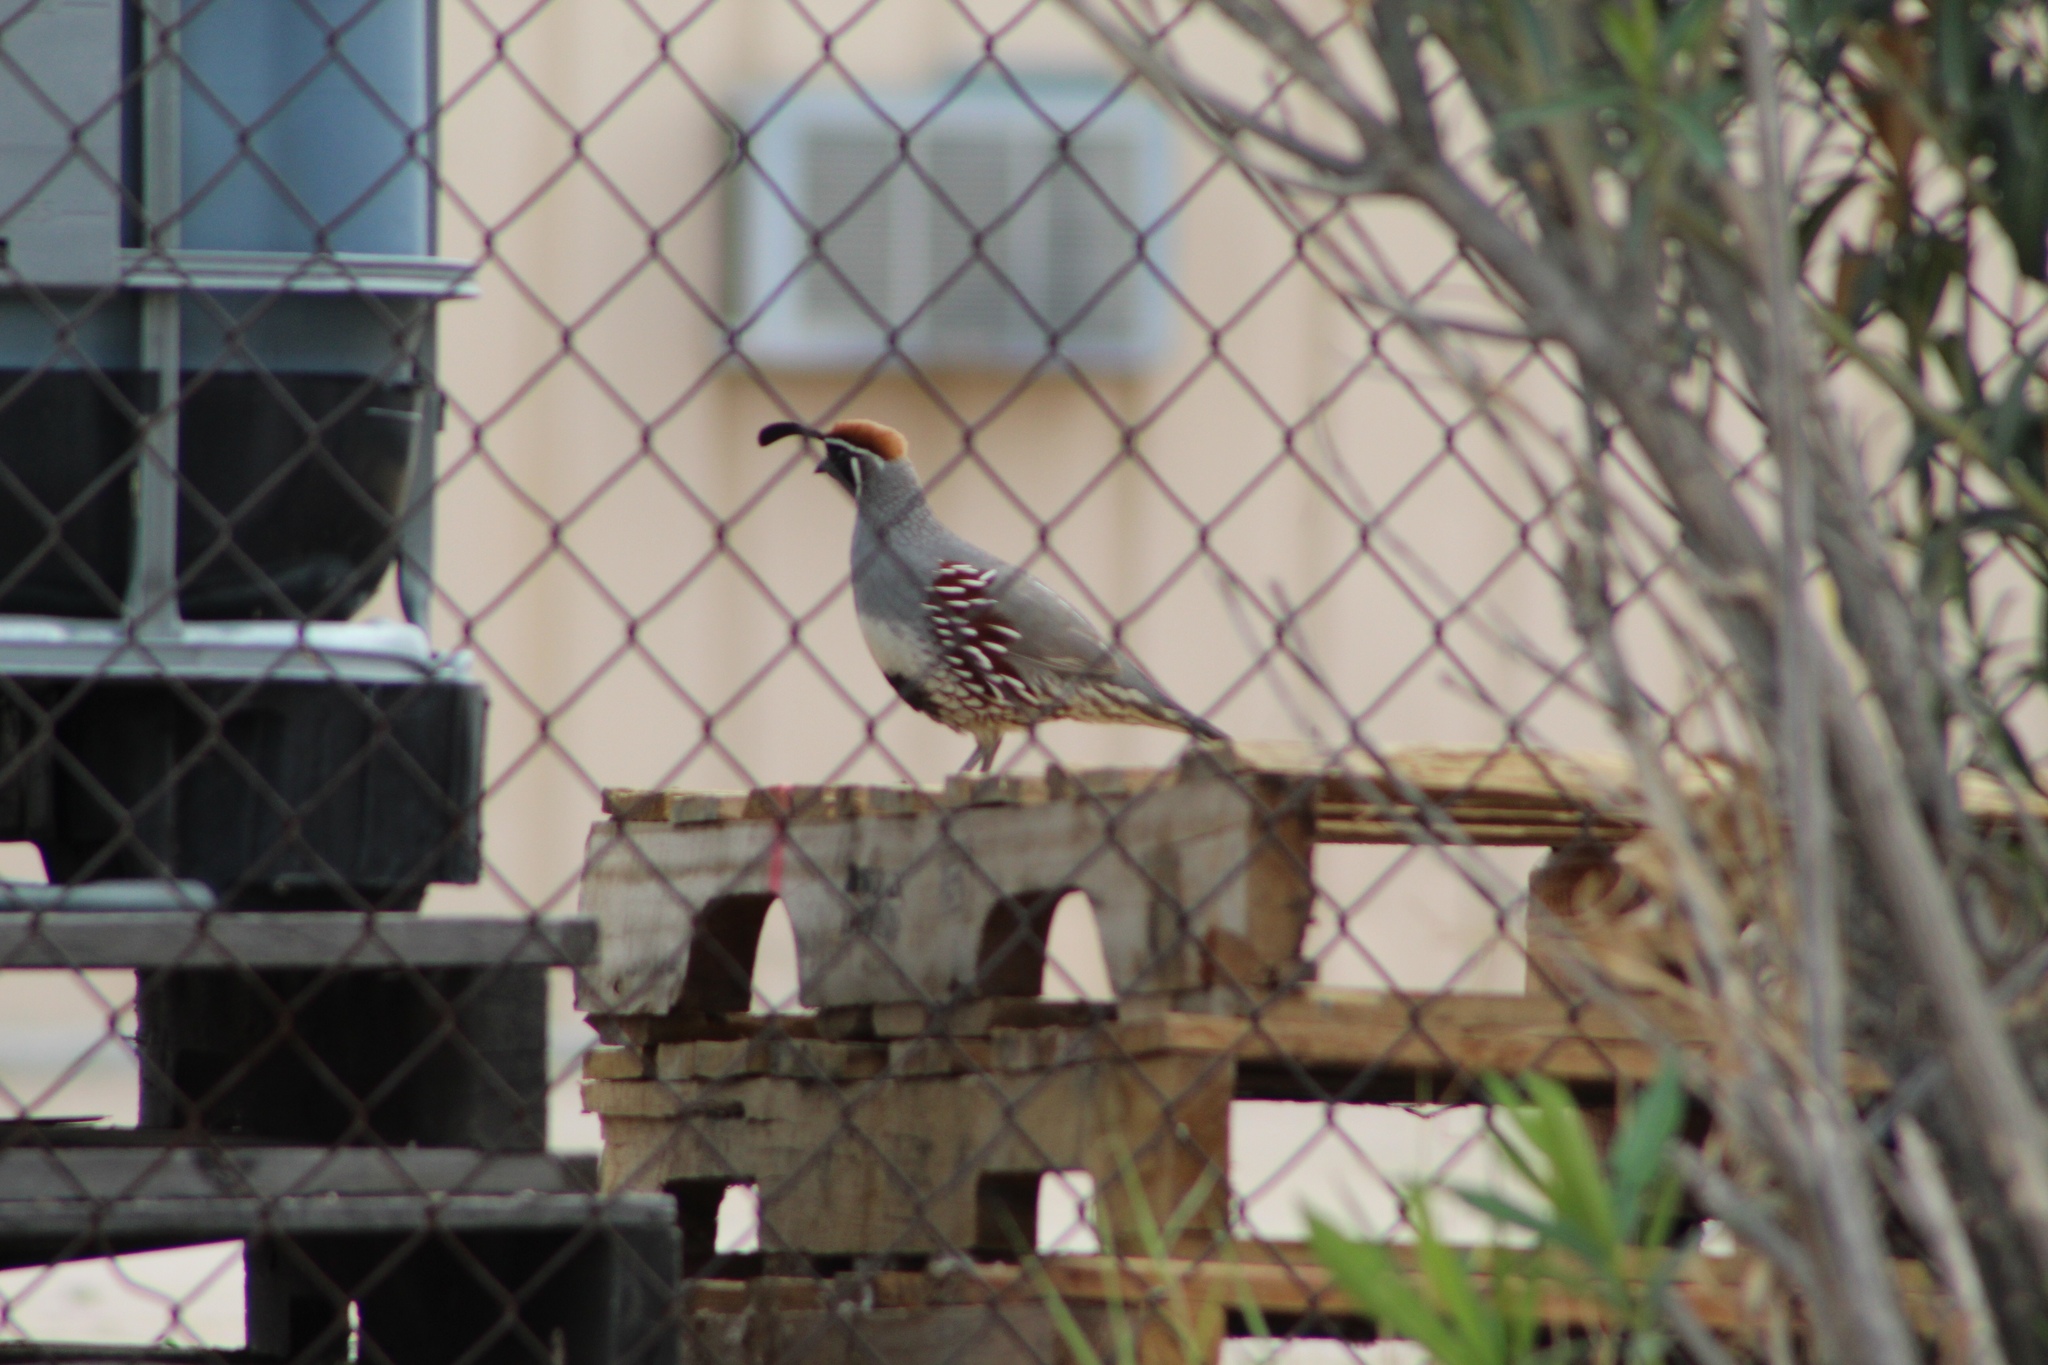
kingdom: Animalia
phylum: Chordata
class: Aves
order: Galliformes
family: Odontophoridae
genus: Callipepla
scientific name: Callipepla gambelii
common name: Gambel's quail
